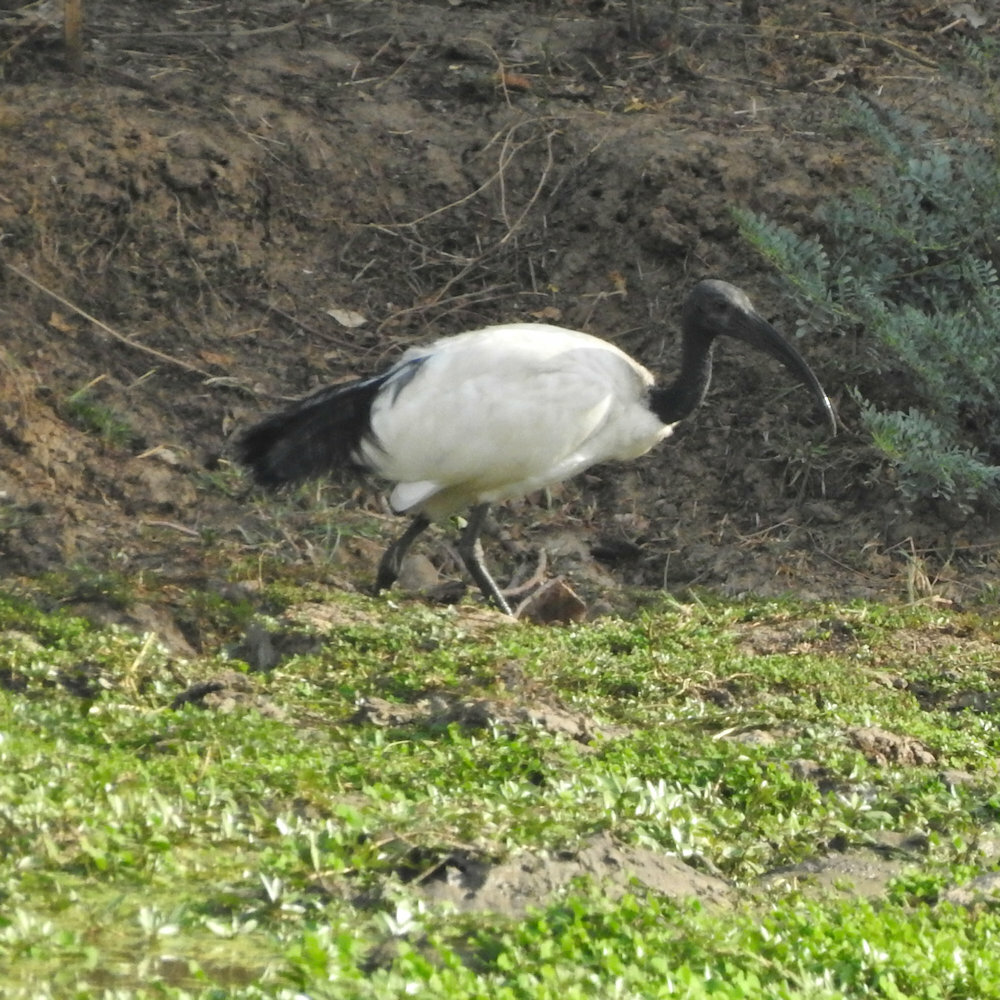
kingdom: Animalia
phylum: Chordata
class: Aves
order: Pelecaniformes
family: Threskiornithidae
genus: Threskiornis
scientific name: Threskiornis aethiopicus
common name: Sacred ibis
